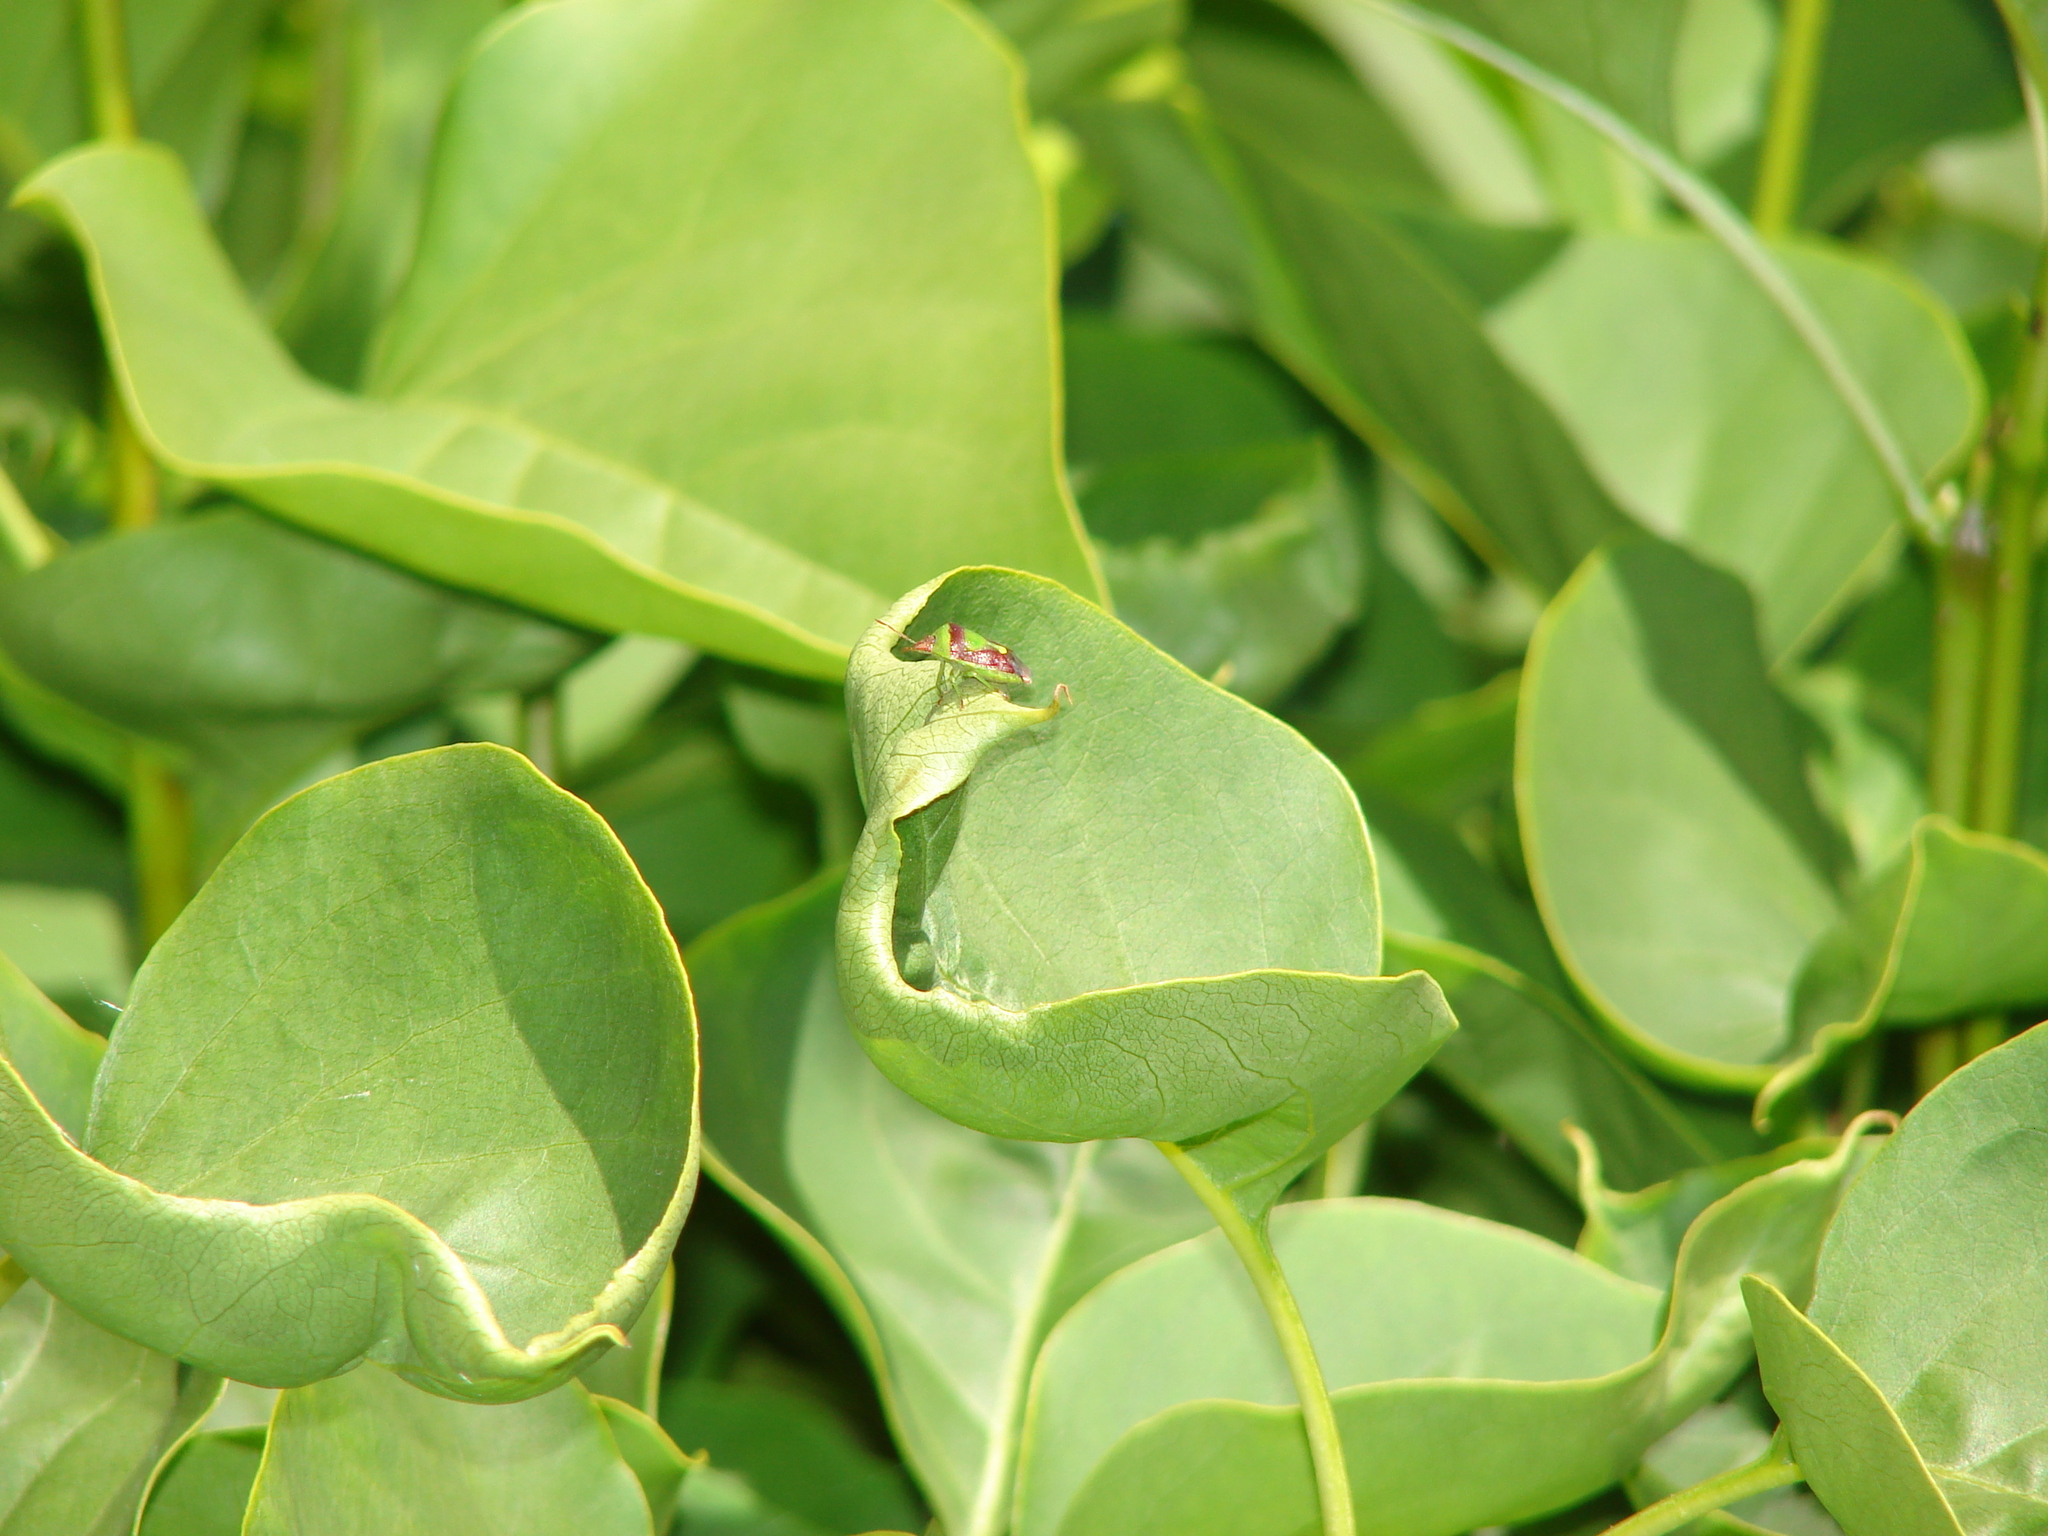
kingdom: Animalia
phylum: Arthropoda
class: Insecta
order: Hemiptera
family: Pentatomidae
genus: Banasa
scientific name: Banasa dimidiata
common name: Green burgundy stink bug
